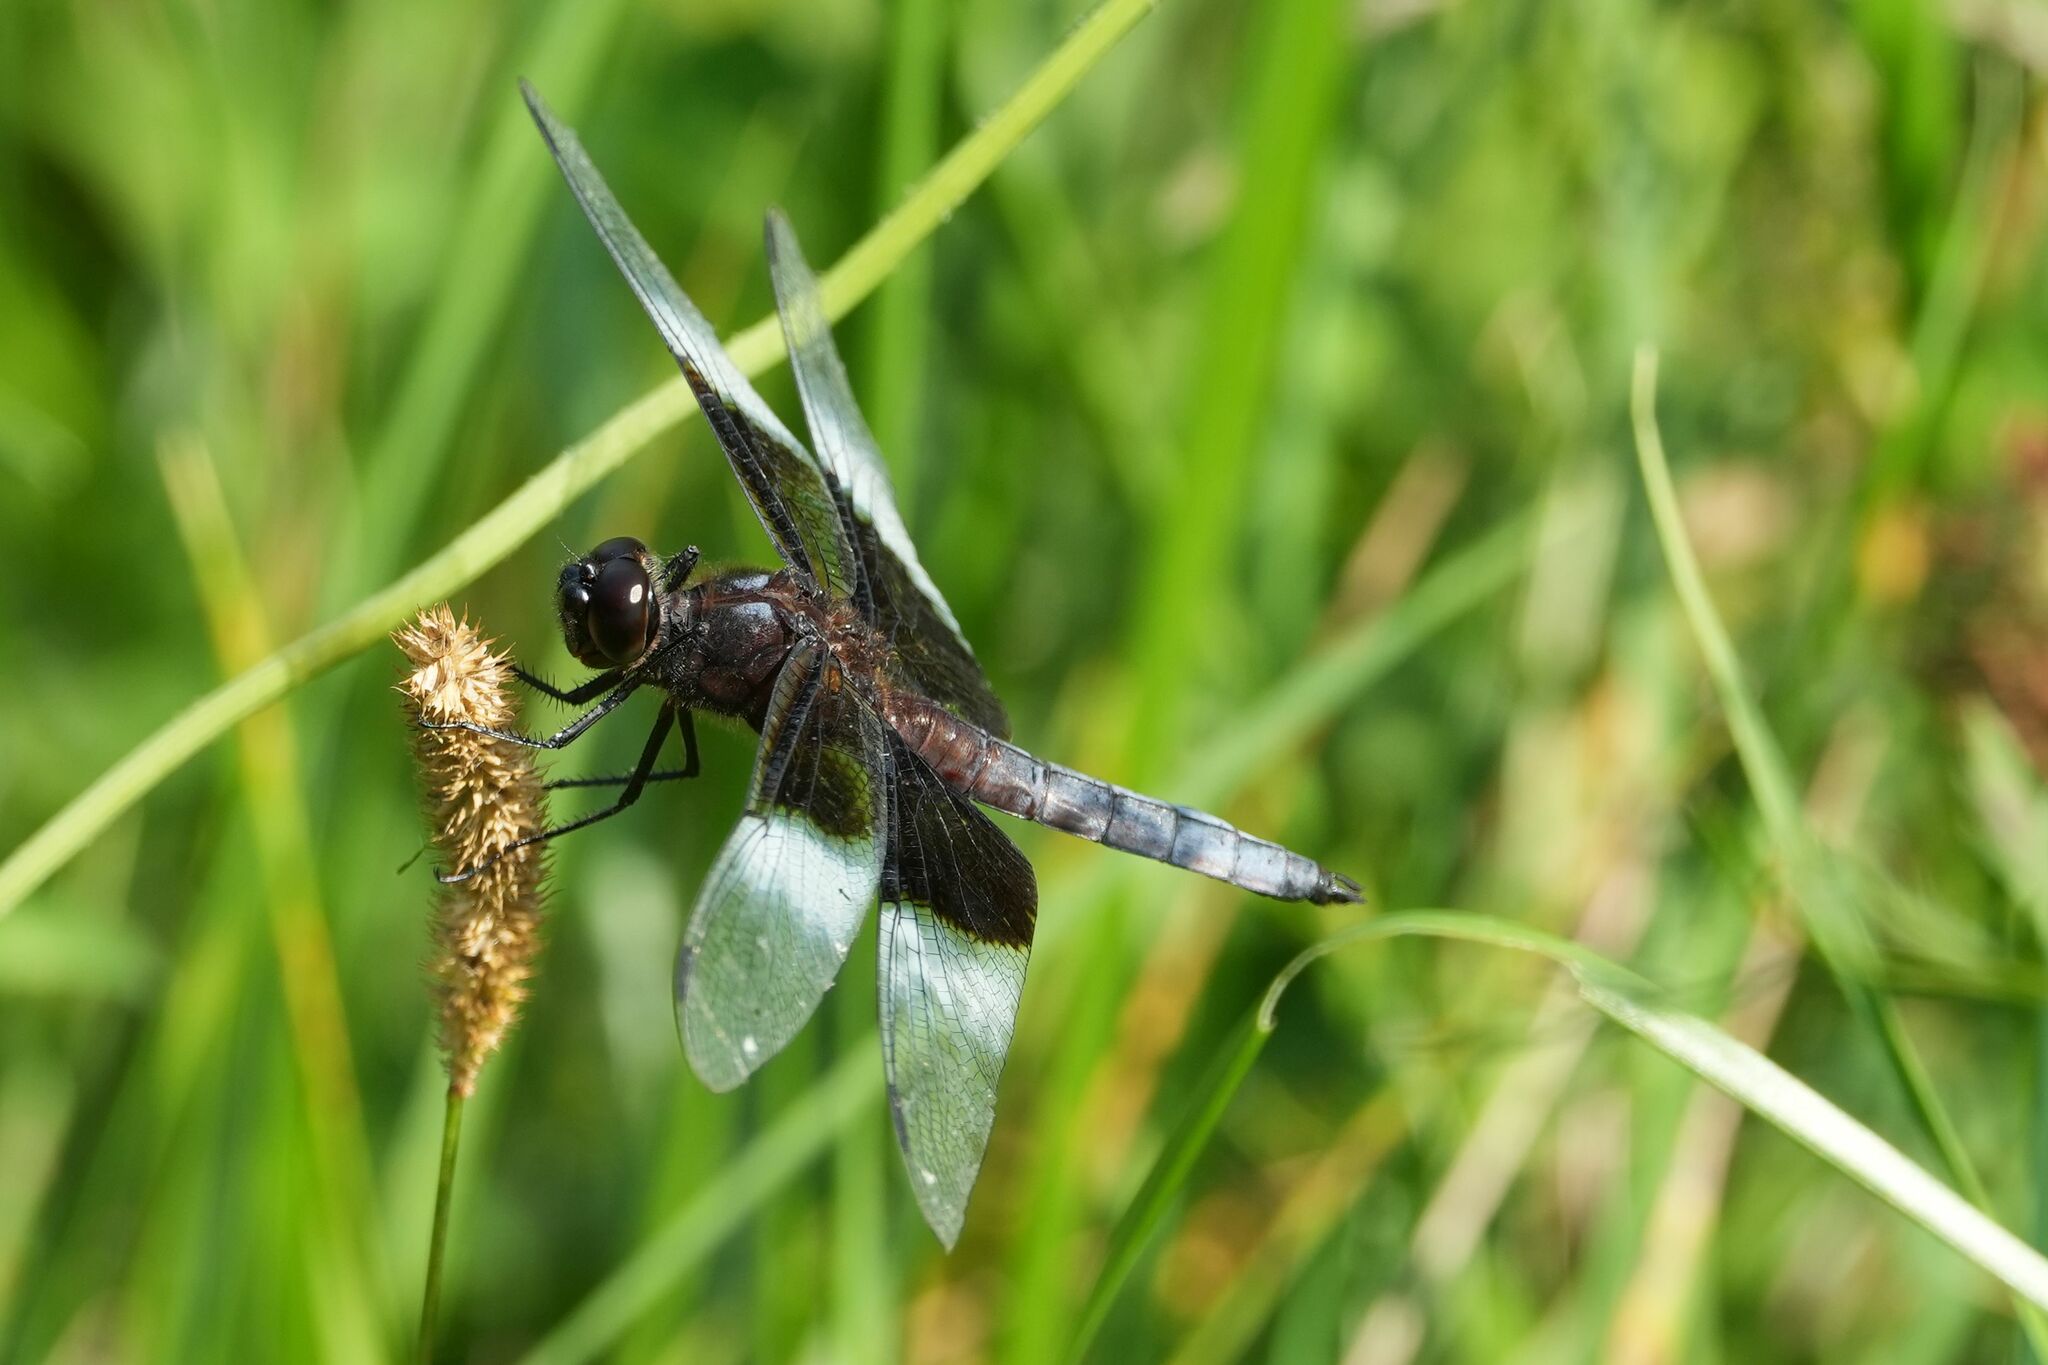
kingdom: Animalia
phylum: Arthropoda
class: Insecta
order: Odonata
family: Libellulidae
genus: Libellula
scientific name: Libellula luctuosa
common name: Widow skimmer
